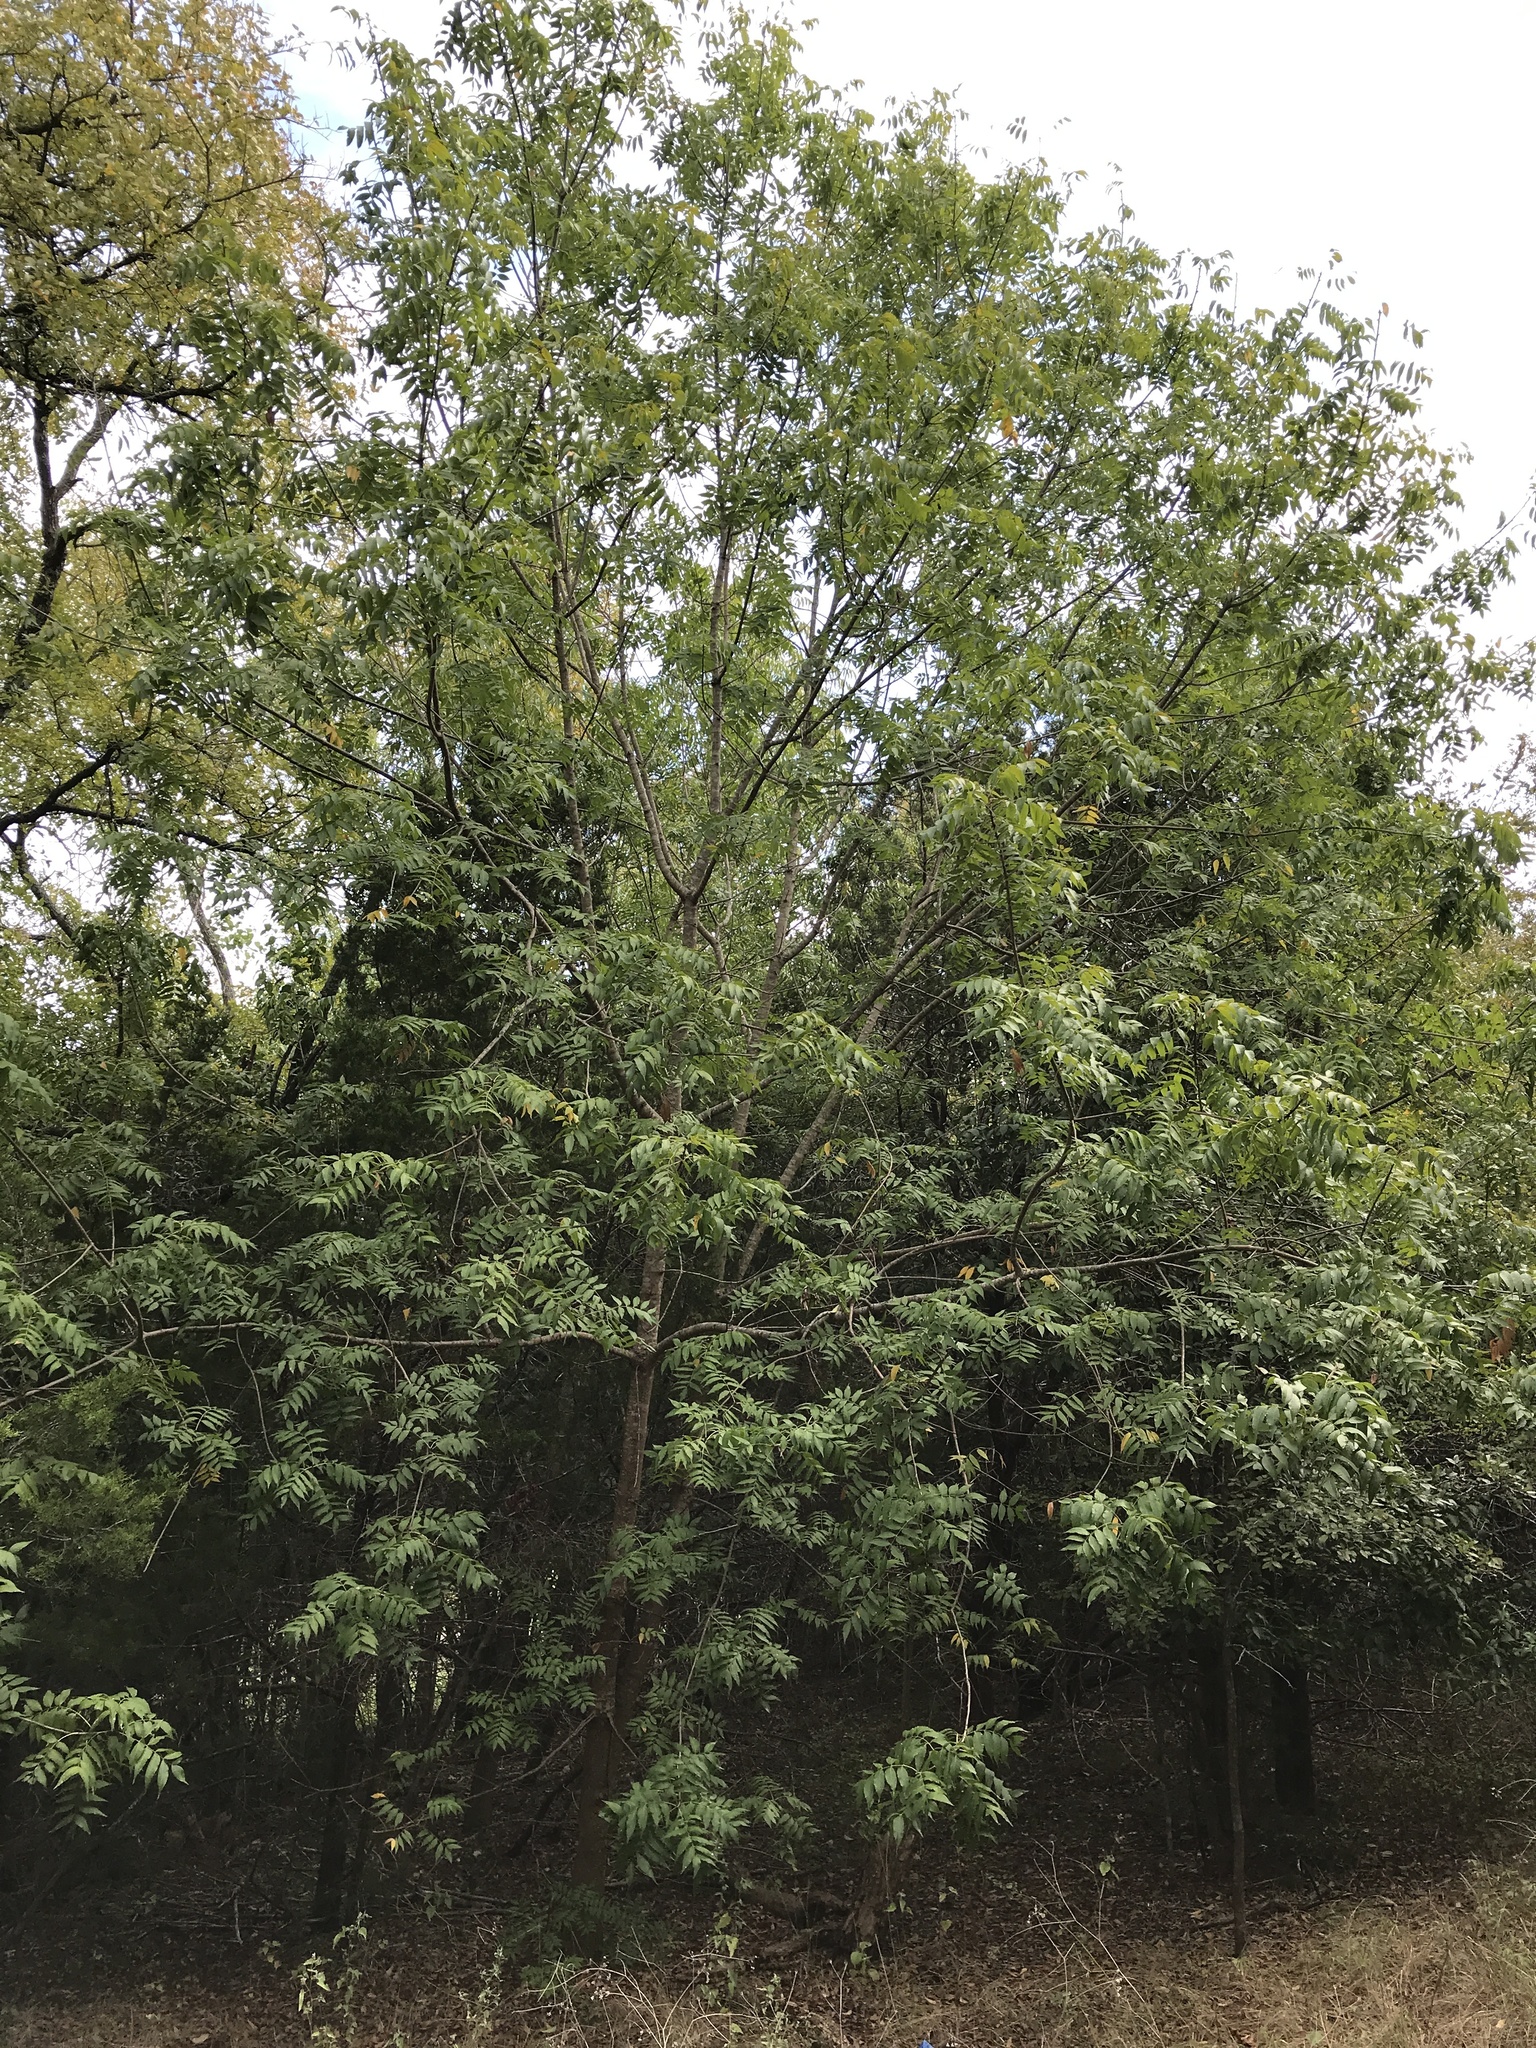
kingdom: Plantae
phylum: Tracheophyta
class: Magnoliopsida
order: Sapindales
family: Anacardiaceae
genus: Pistacia
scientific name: Pistacia chinensis
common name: Chinese pistache
